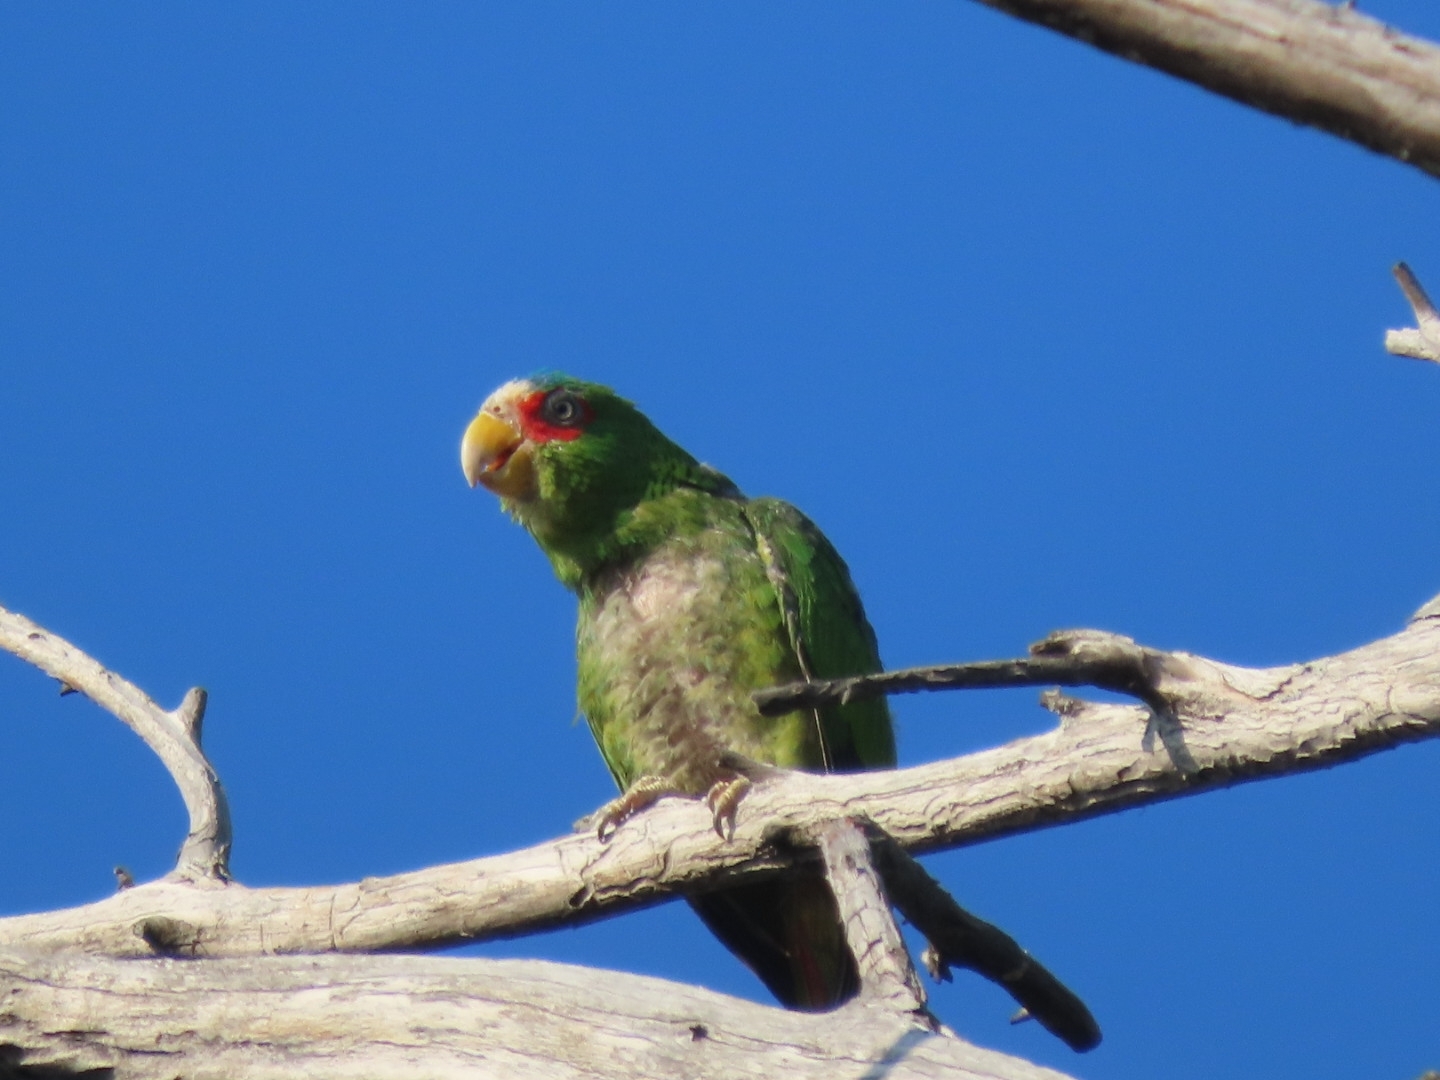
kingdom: Animalia
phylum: Chordata
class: Aves
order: Psittaciformes
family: Psittacidae
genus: Amazona
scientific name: Amazona albifrons
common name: White-fronted amazon
